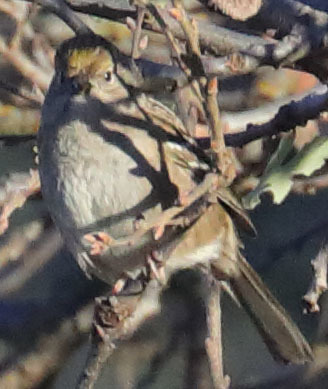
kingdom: Animalia
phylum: Chordata
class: Aves
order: Passeriformes
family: Passerellidae
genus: Zonotrichia
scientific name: Zonotrichia atricapilla
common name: Golden-crowned sparrow
